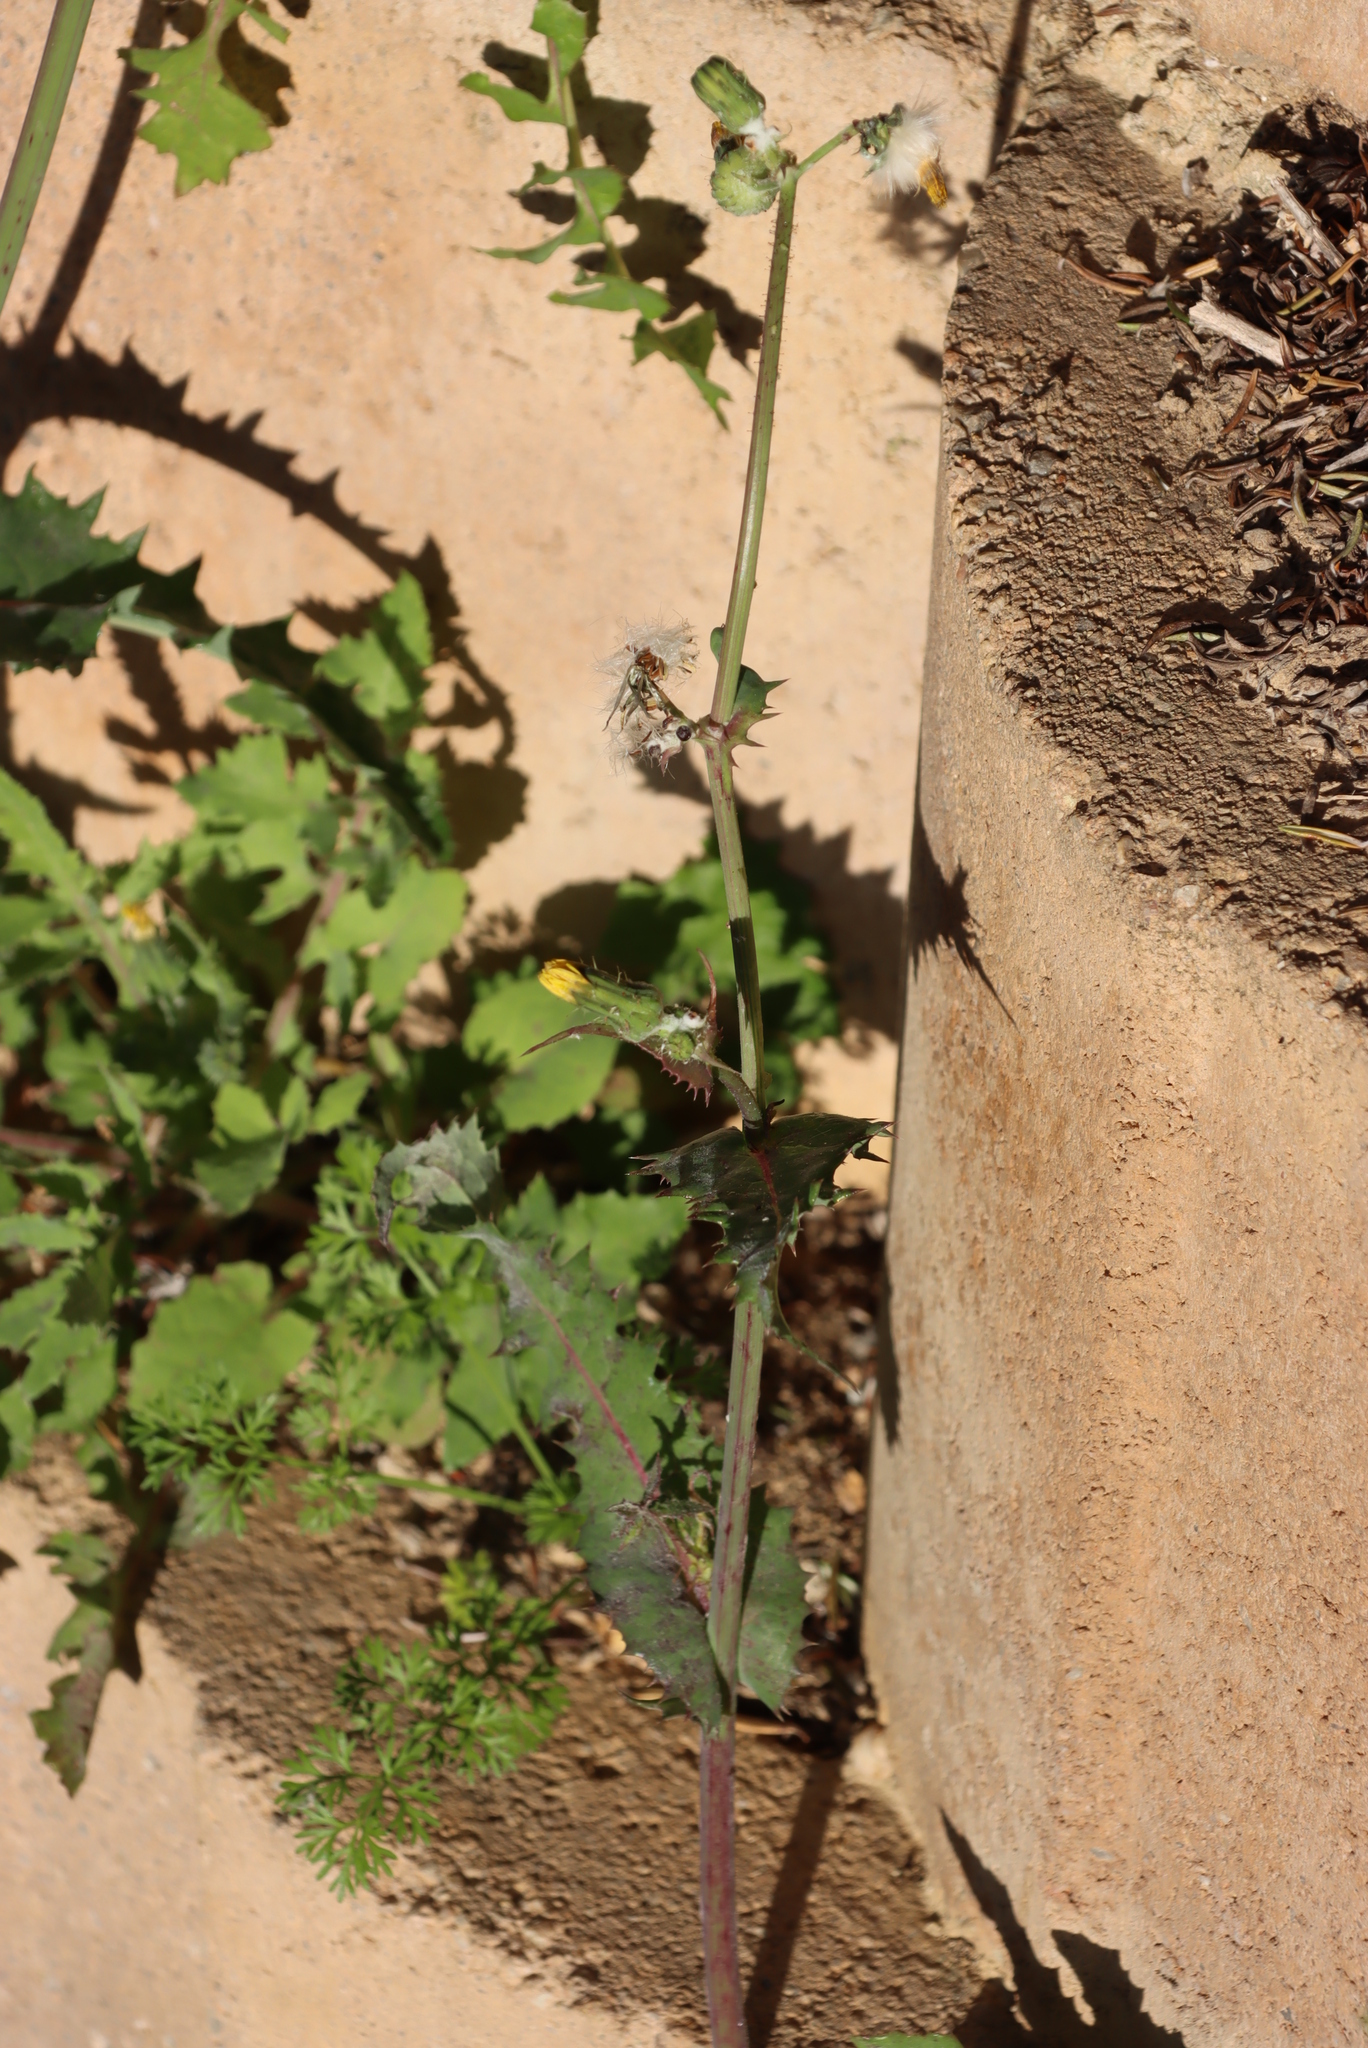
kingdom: Plantae
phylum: Tracheophyta
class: Magnoliopsida
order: Asterales
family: Asteraceae
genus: Sonchus
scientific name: Sonchus asper
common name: Prickly sow-thistle
